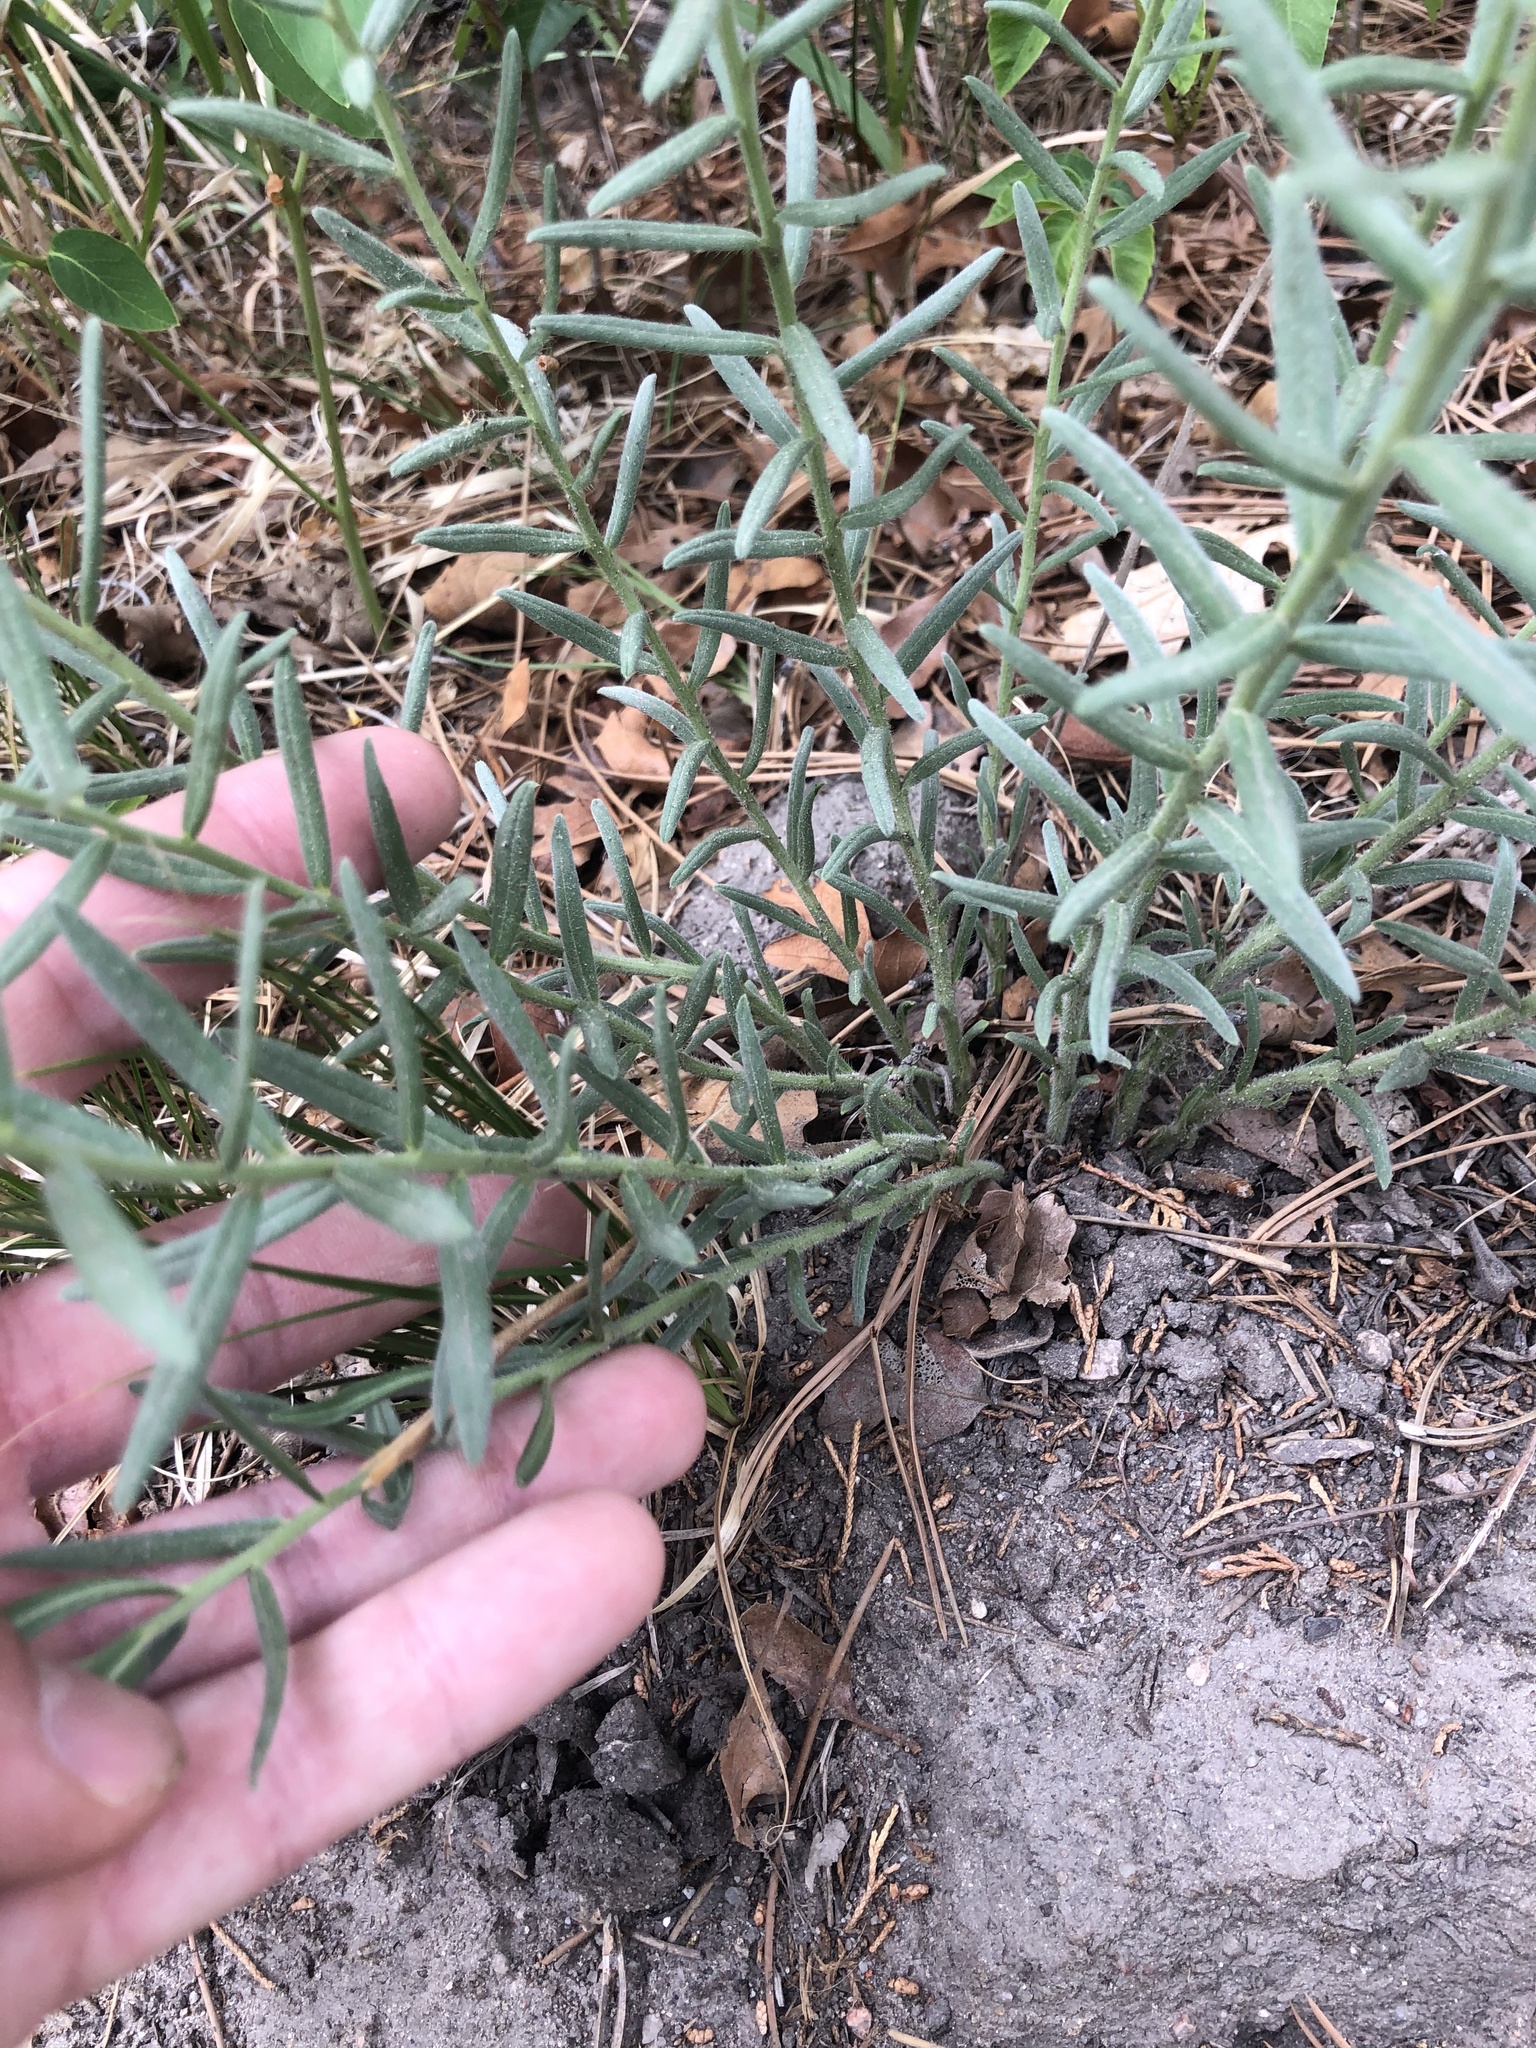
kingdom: Plantae
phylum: Tracheophyta
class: Magnoliopsida
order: Boraginales
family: Boraginaceae
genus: Lithospermum
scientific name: Lithospermum multiflorum
